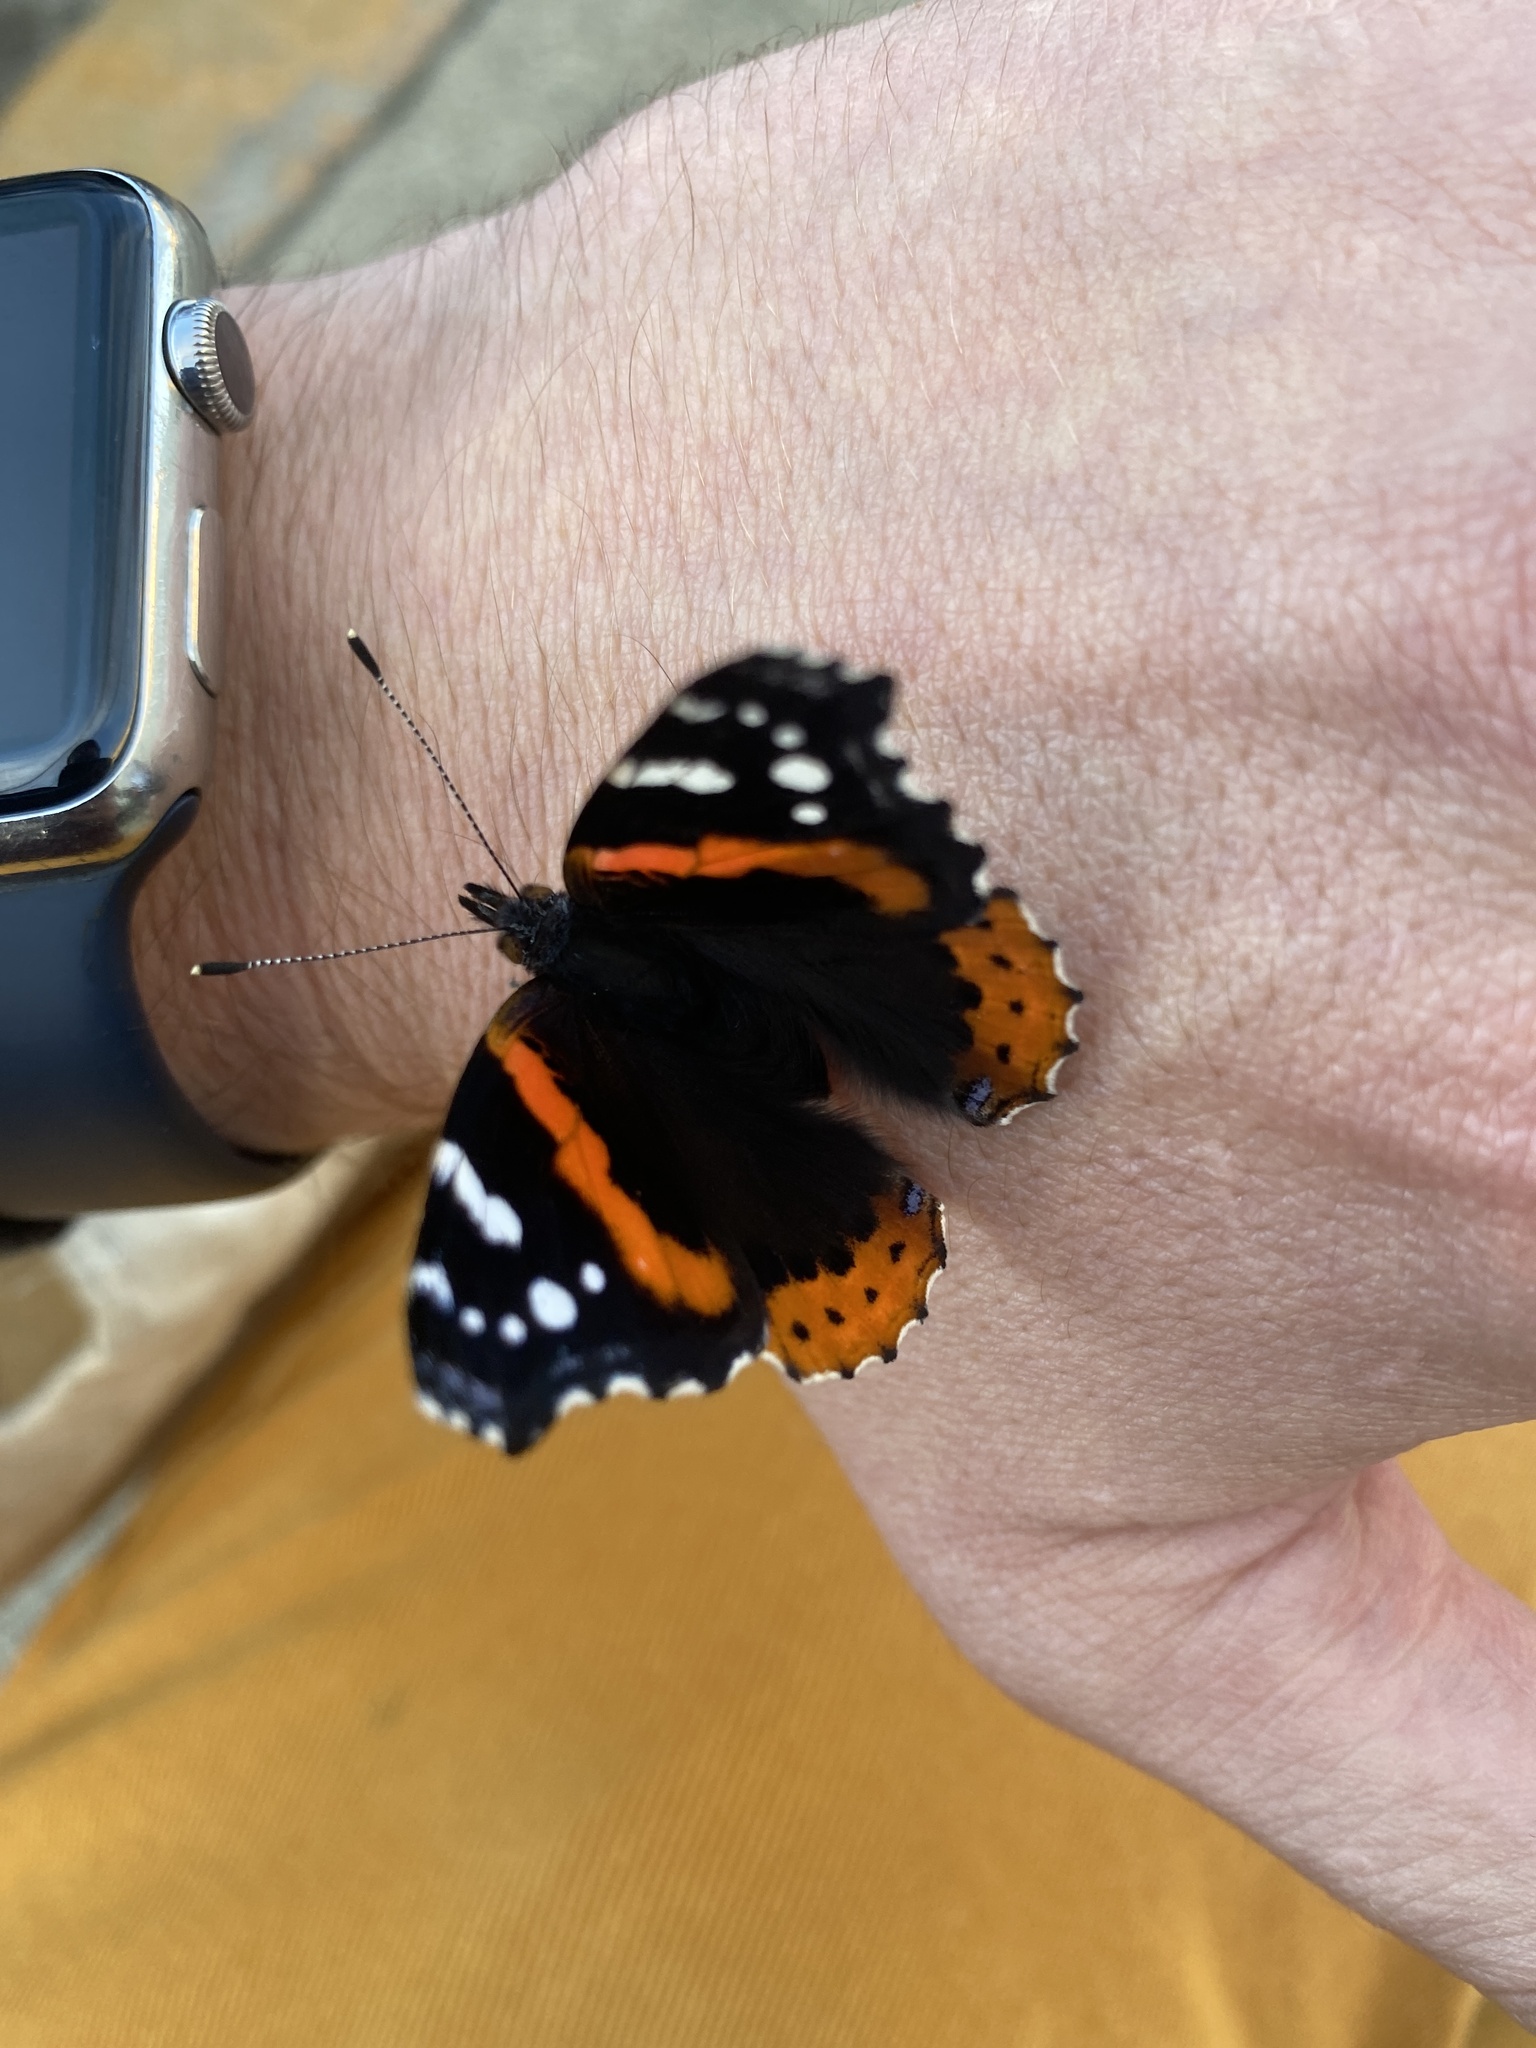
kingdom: Animalia
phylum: Arthropoda
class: Insecta
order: Lepidoptera
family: Nymphalidae
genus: Vanessa
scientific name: Vanessa atalanta
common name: Red admiral
